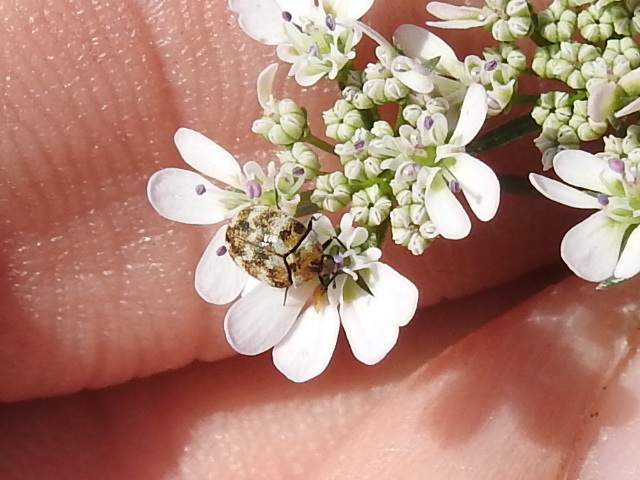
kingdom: Animalia
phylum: Arthropoda
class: Insecta
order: Coleoptera
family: Dermestidae
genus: Anthrenus
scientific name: Anthrenus verbasci
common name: Varied carpet beetle
